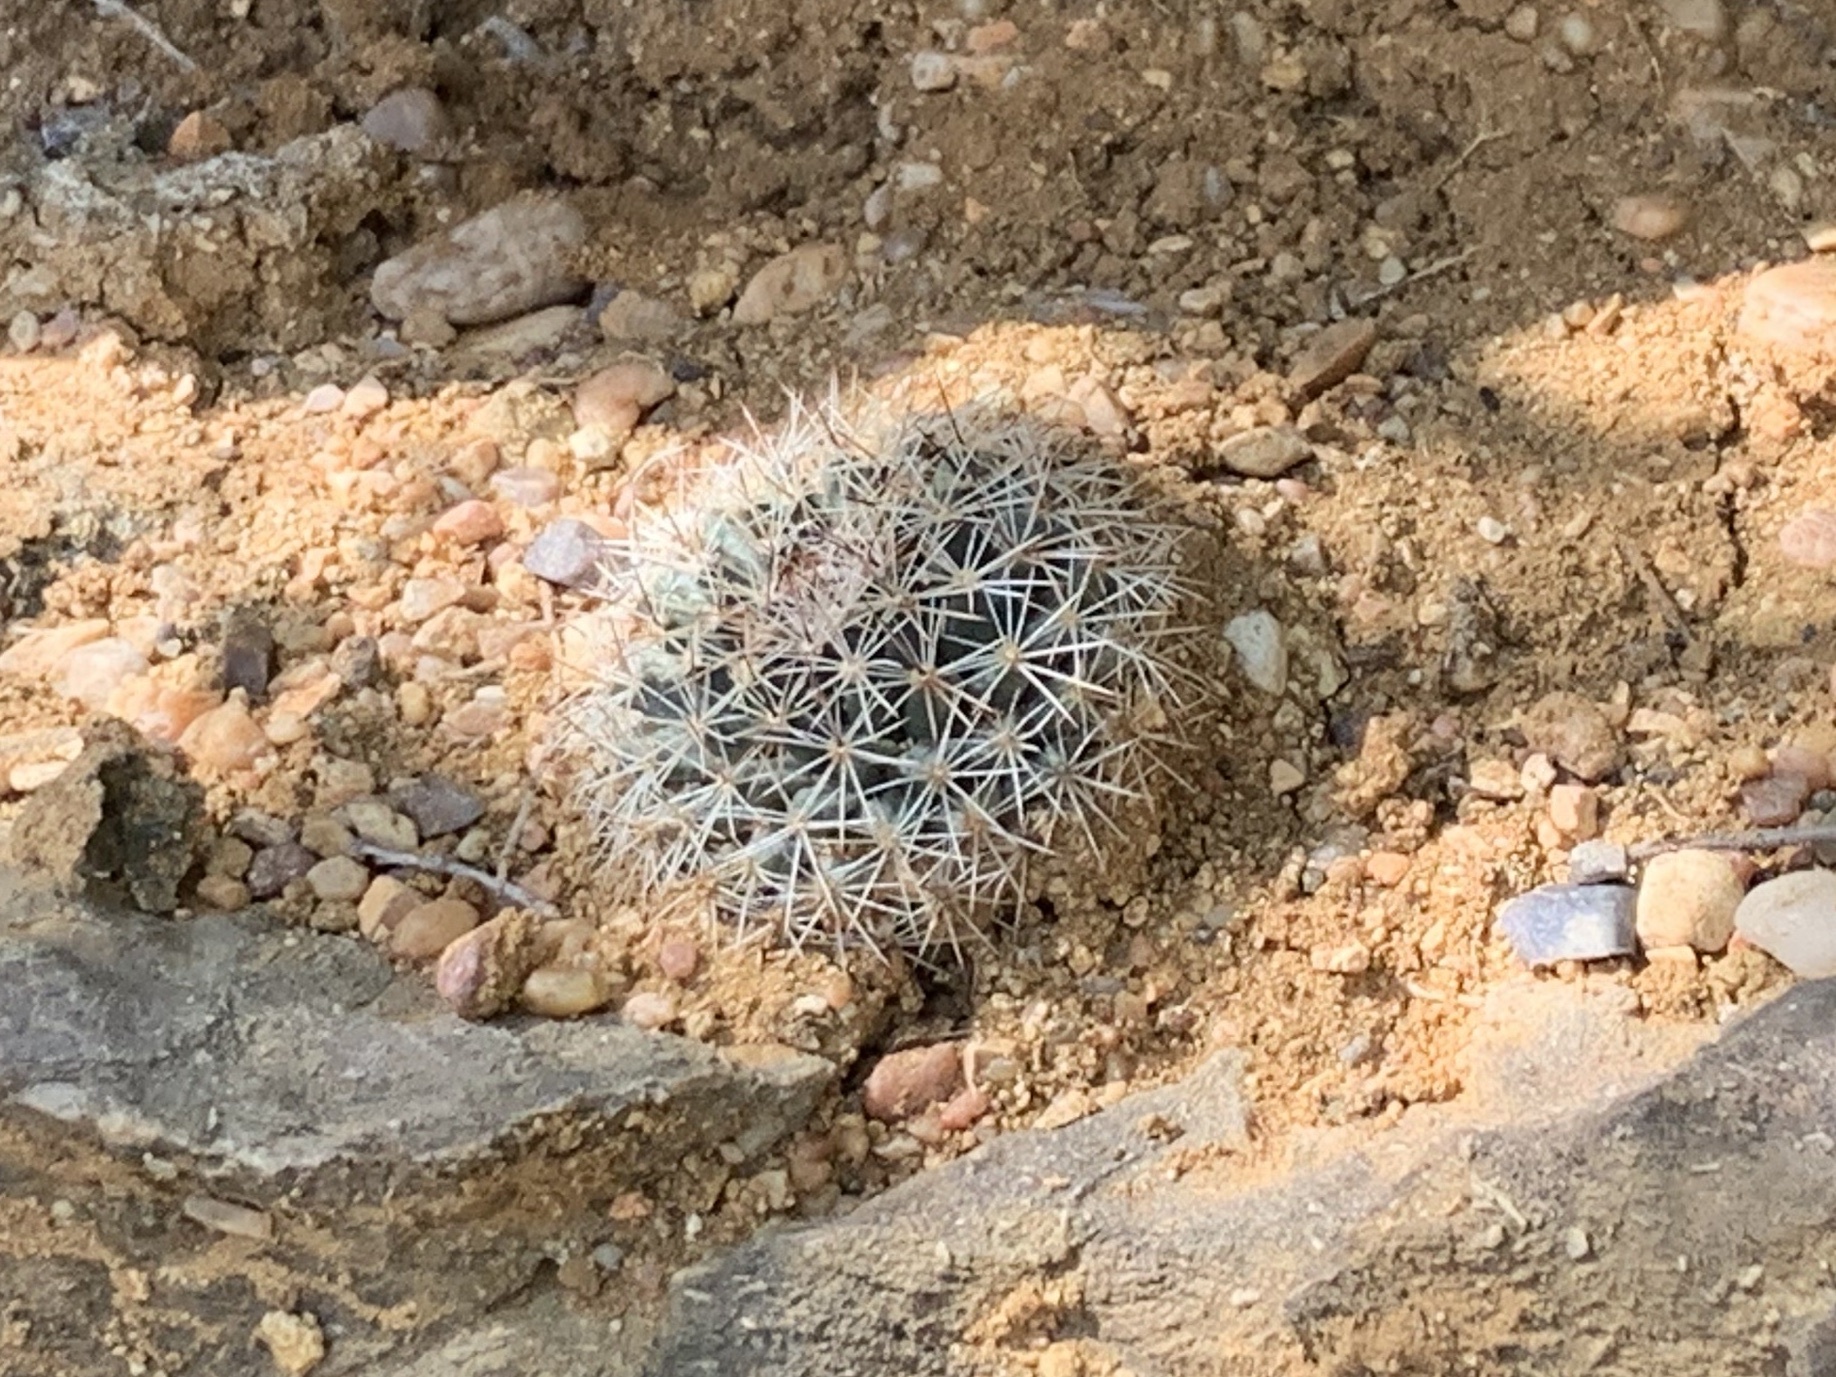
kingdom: Plantae
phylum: Tracheophyta
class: Magnoliopsida
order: Caryophyllales
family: Cactaceae
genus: Mammillaria
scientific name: Mammillaria heyderi
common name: Little nipple cactus
